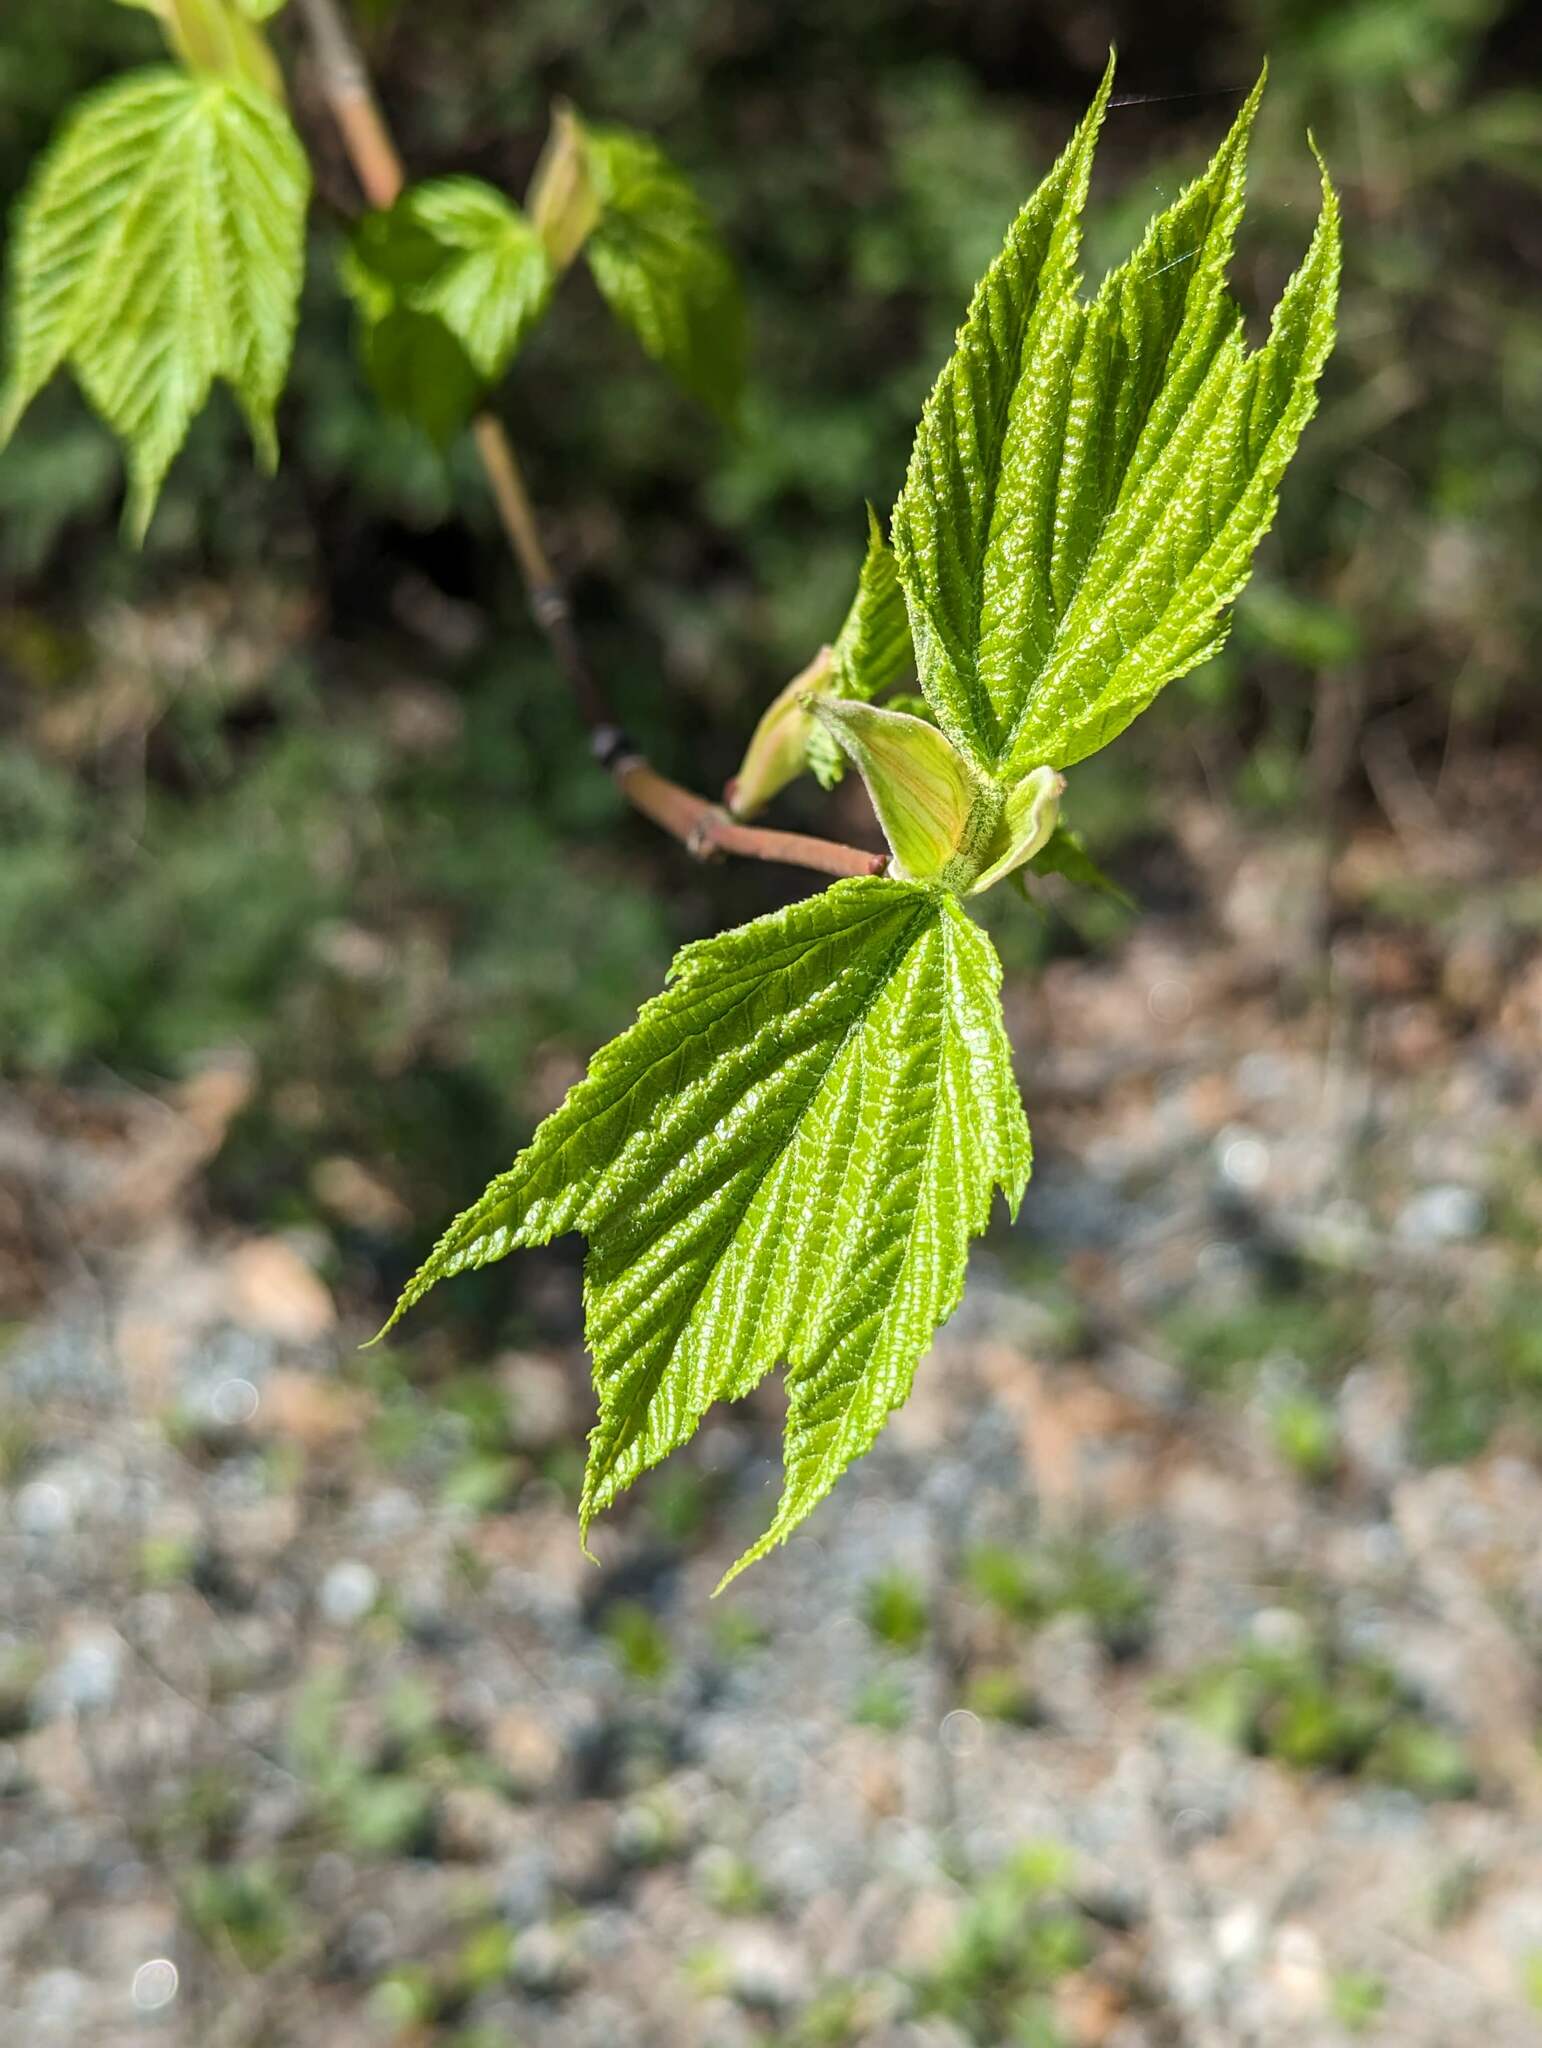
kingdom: Plantae
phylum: Tracheophyta
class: Magnoliopsida
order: Sapindales
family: Sapindaceae
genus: Acer
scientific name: Acer pensylvanicum
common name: Moosewood
